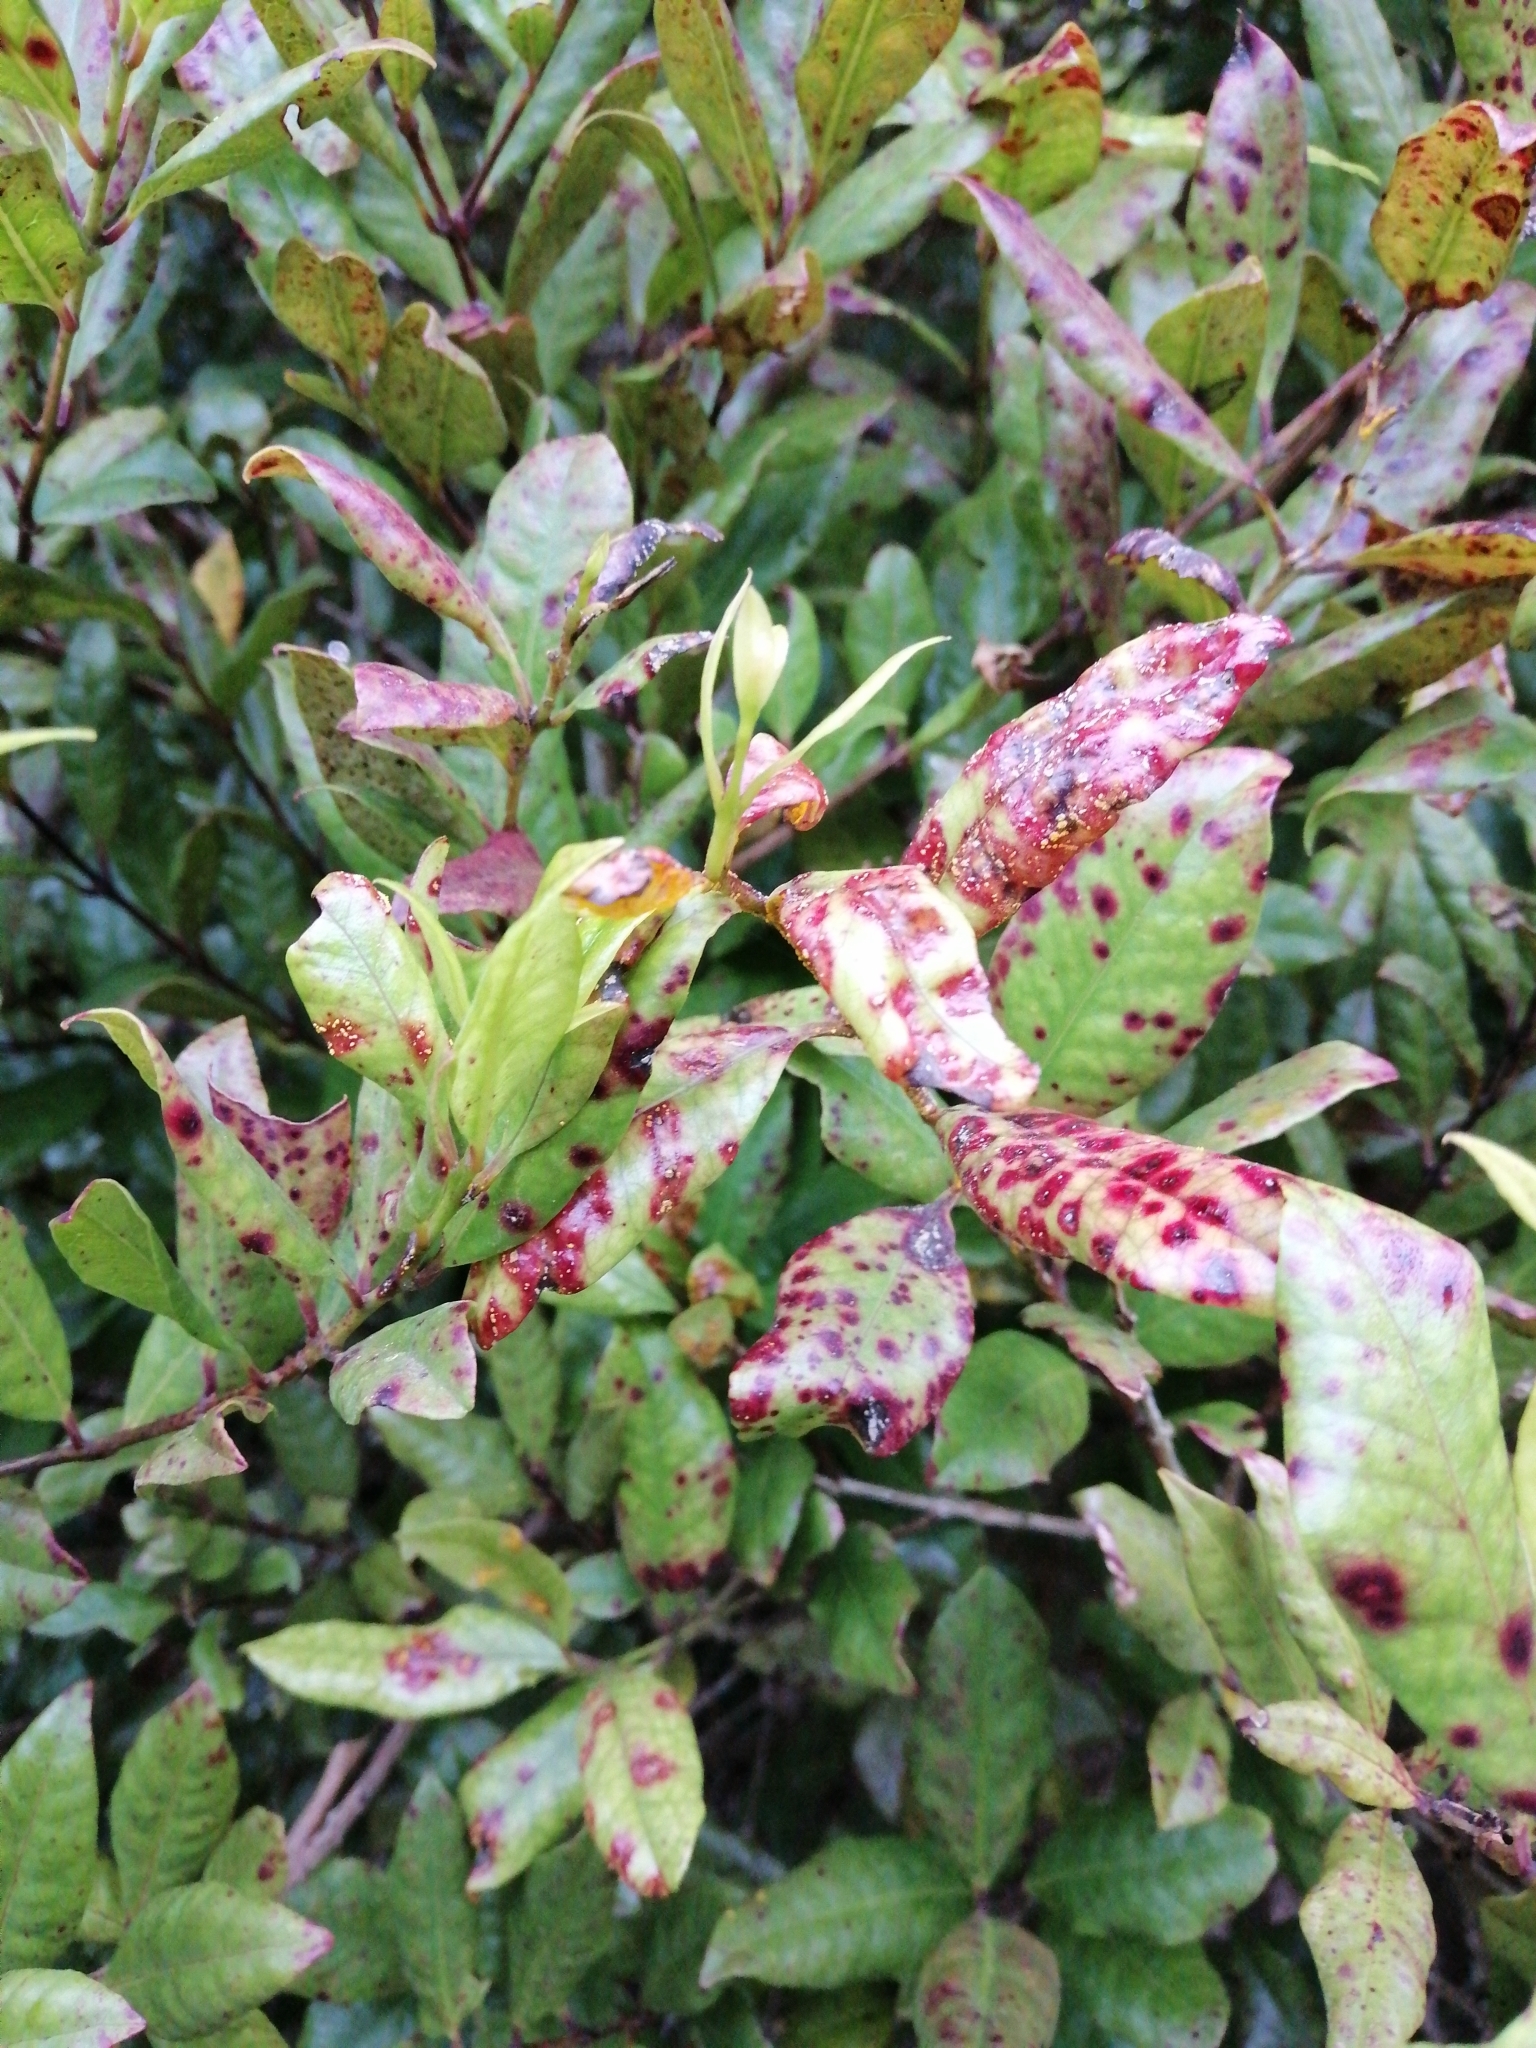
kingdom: Fungi
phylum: Basidiomycota
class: Pucciniomycetes
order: Pucciniales
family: Sphaerophragmiaceae
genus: Austropuccinia
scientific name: Austropuccinia psidii
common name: Myrtle rust
